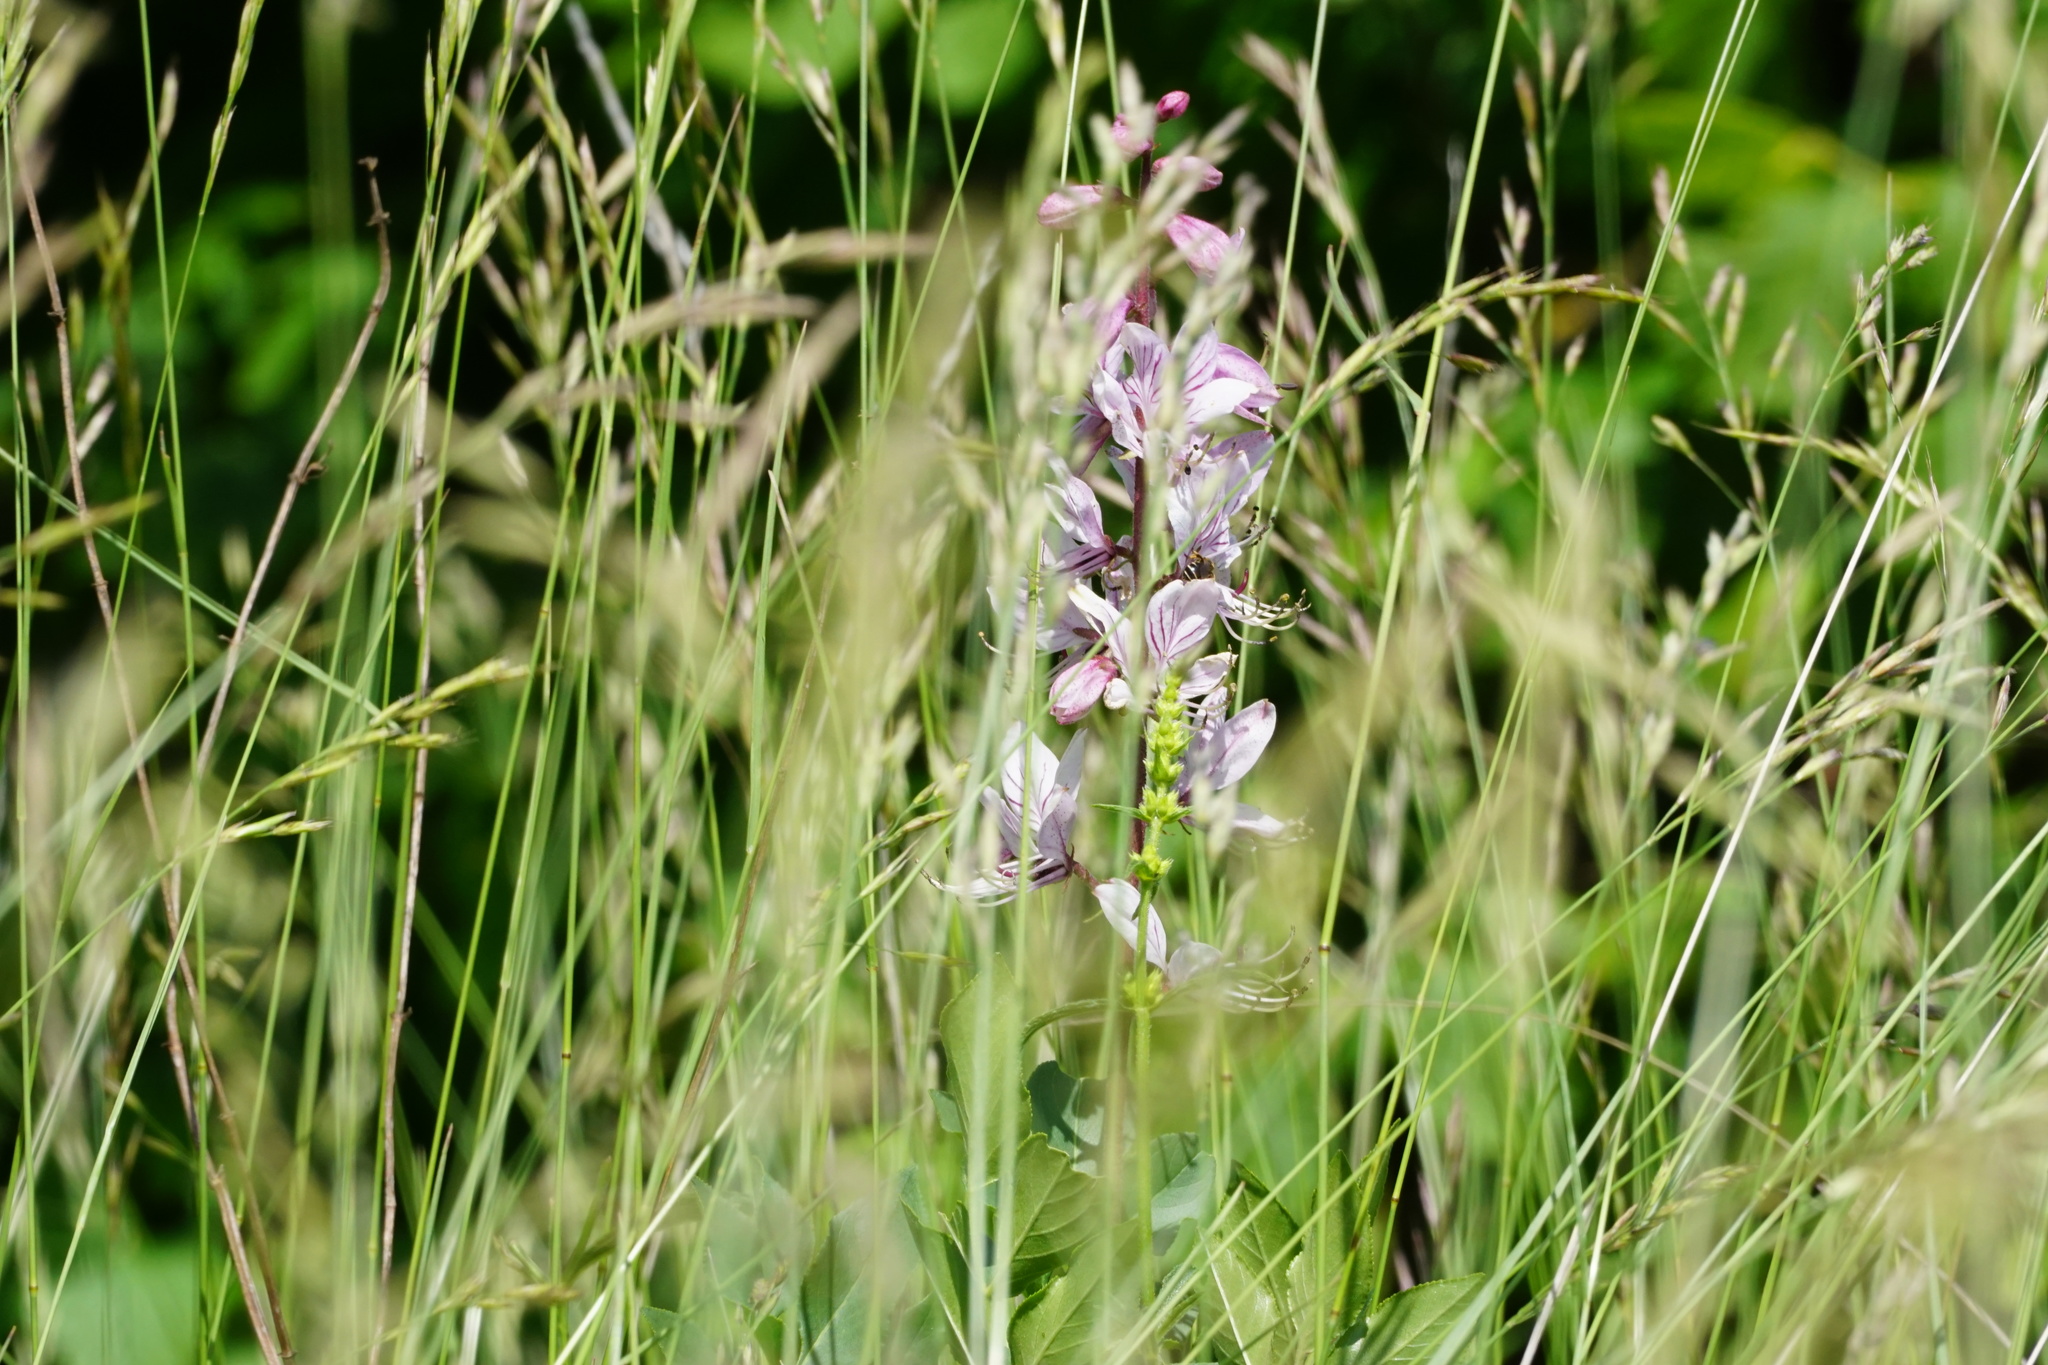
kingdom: Plantae
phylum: Tracheophyta
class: Magnoliopsida
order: Sapindales
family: Rutaceae
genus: Dictamnus
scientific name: Dictamnus albus
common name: Gasplant
